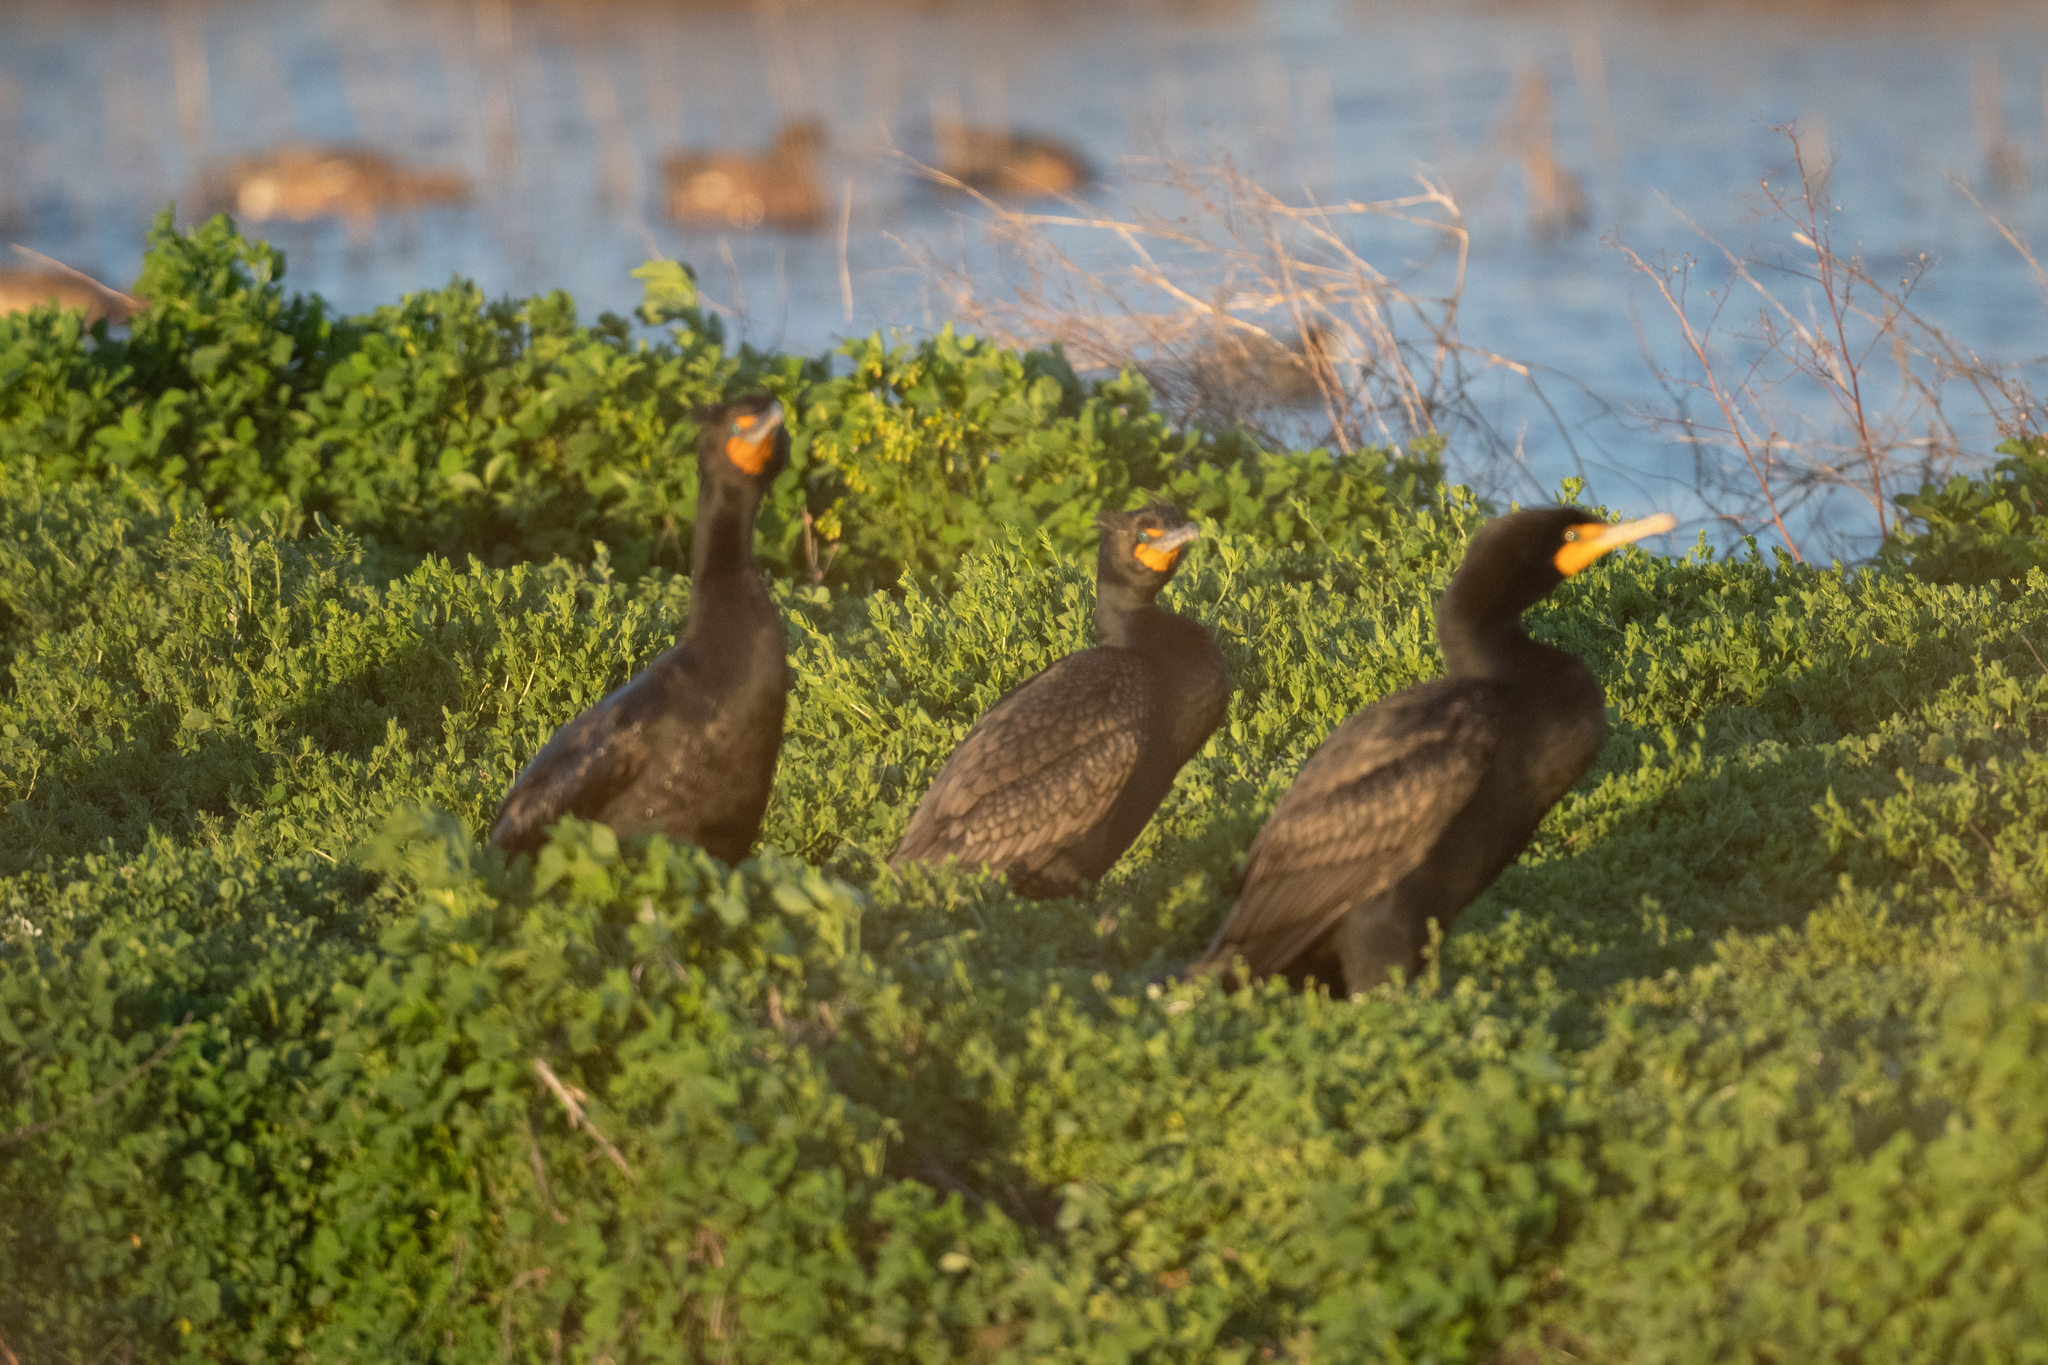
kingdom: Animalia
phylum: Chordata
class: Aves
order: Suliformes
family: Phalacrocoracidae
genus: Phalacrocorax
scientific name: Phalacrocorax auritus
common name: Double-crested cormorant
